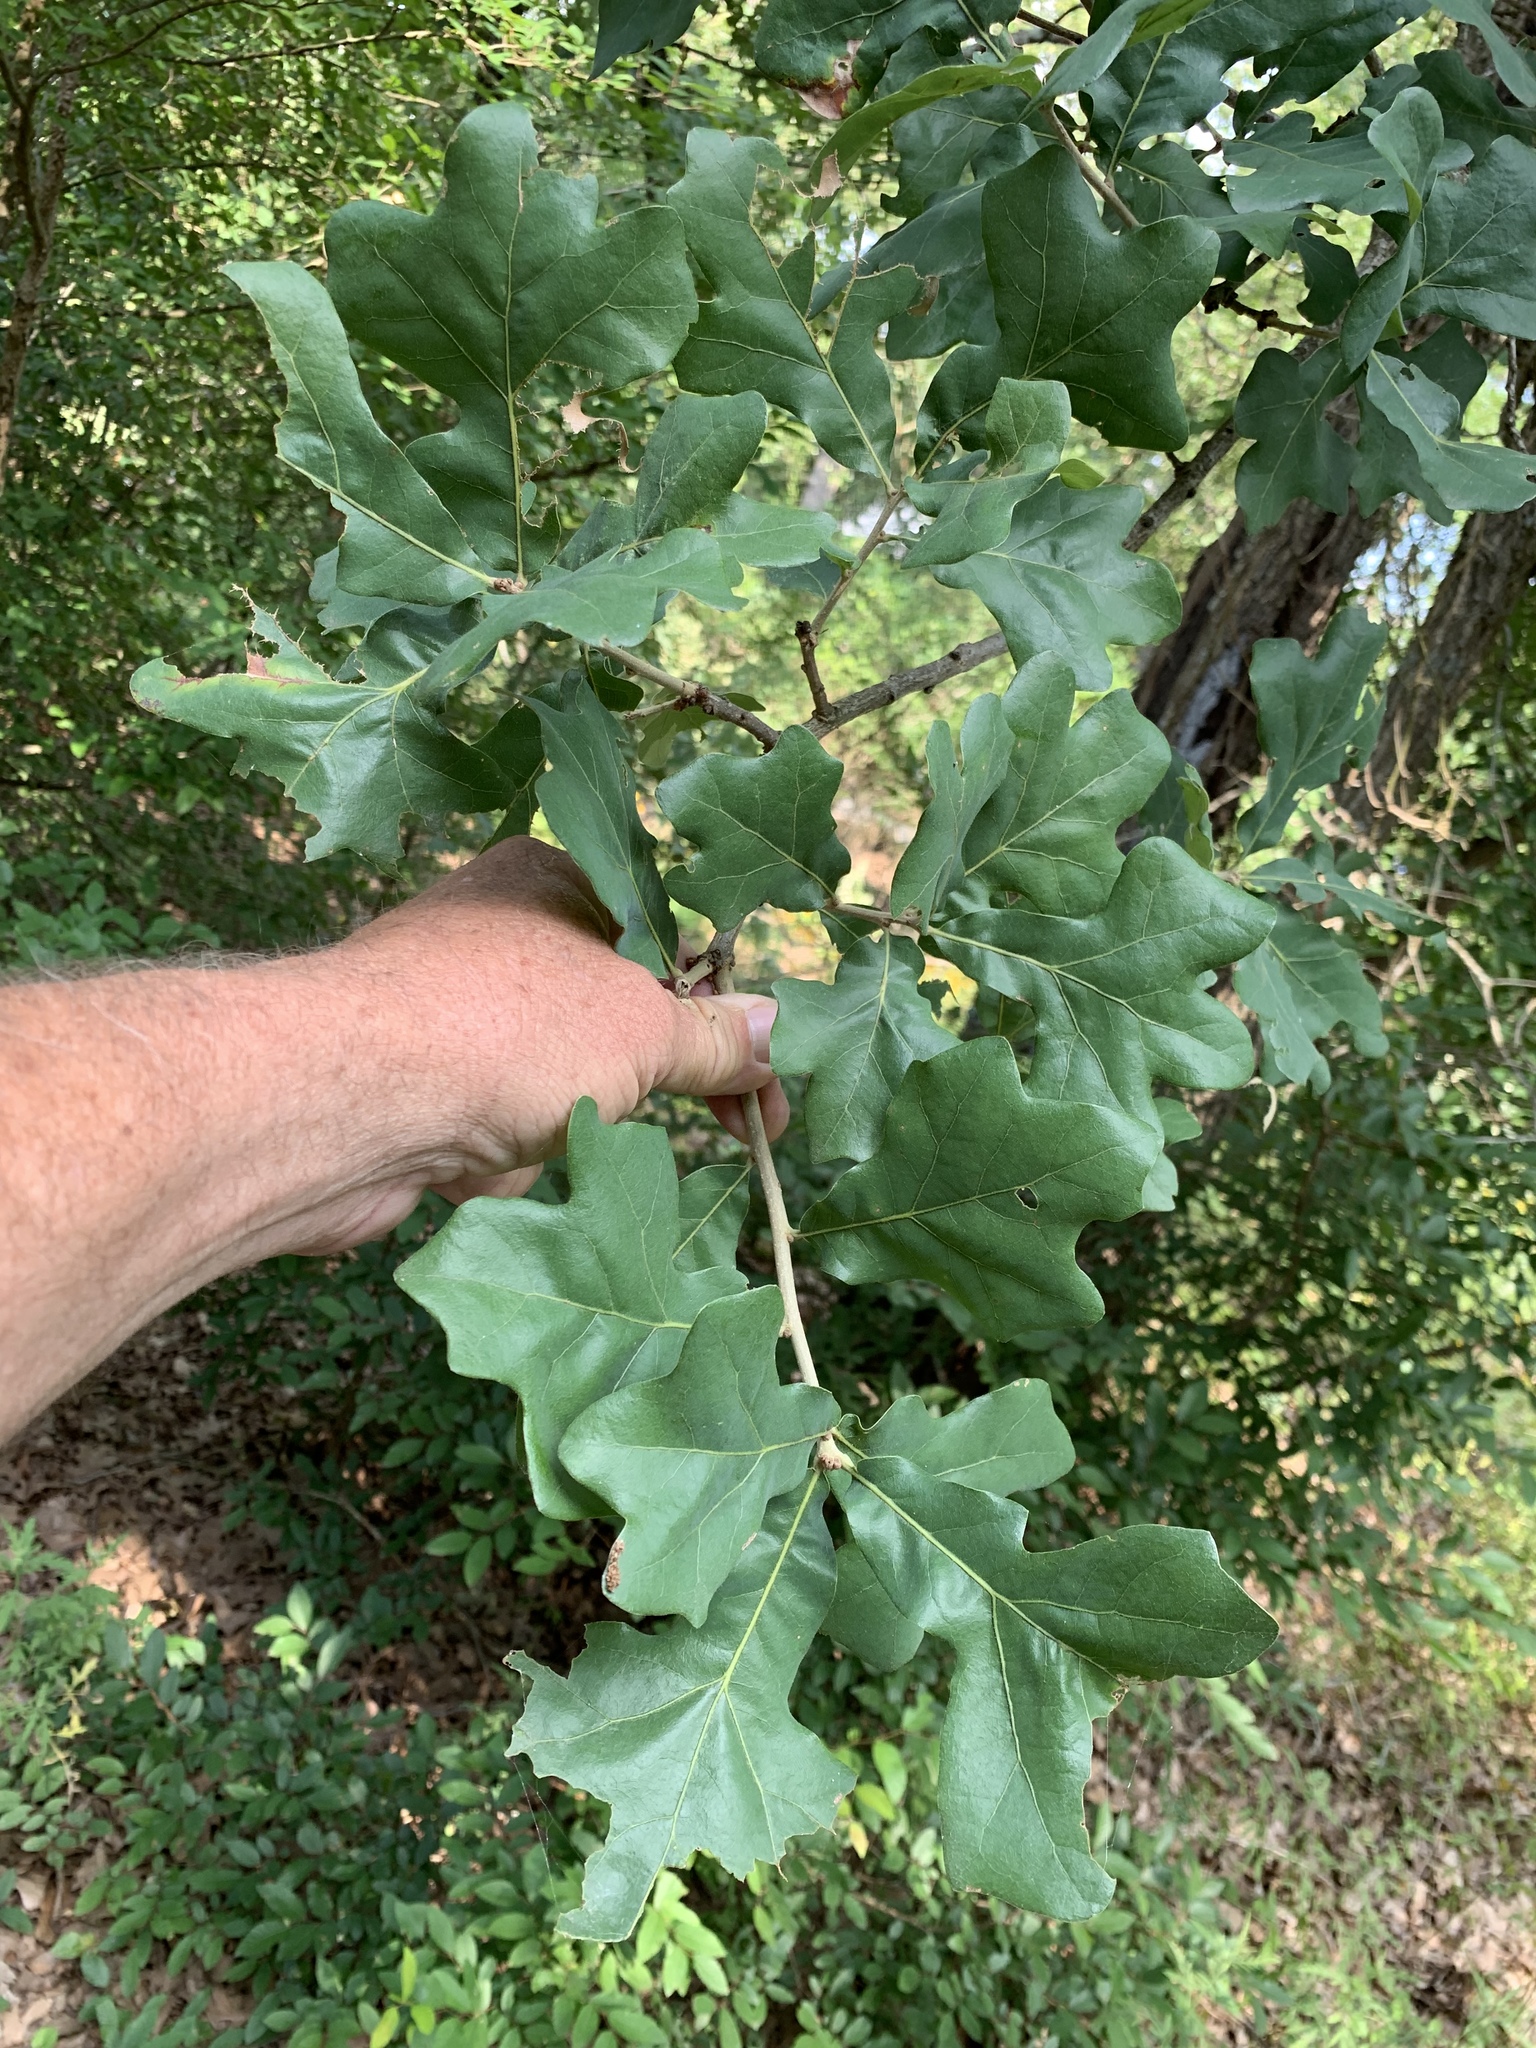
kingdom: Plantae
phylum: Tracheophyta
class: Magnoliopsida
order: Fagales
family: Fagaceae
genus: Quercus
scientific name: Quercus stellata
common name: Post oak
